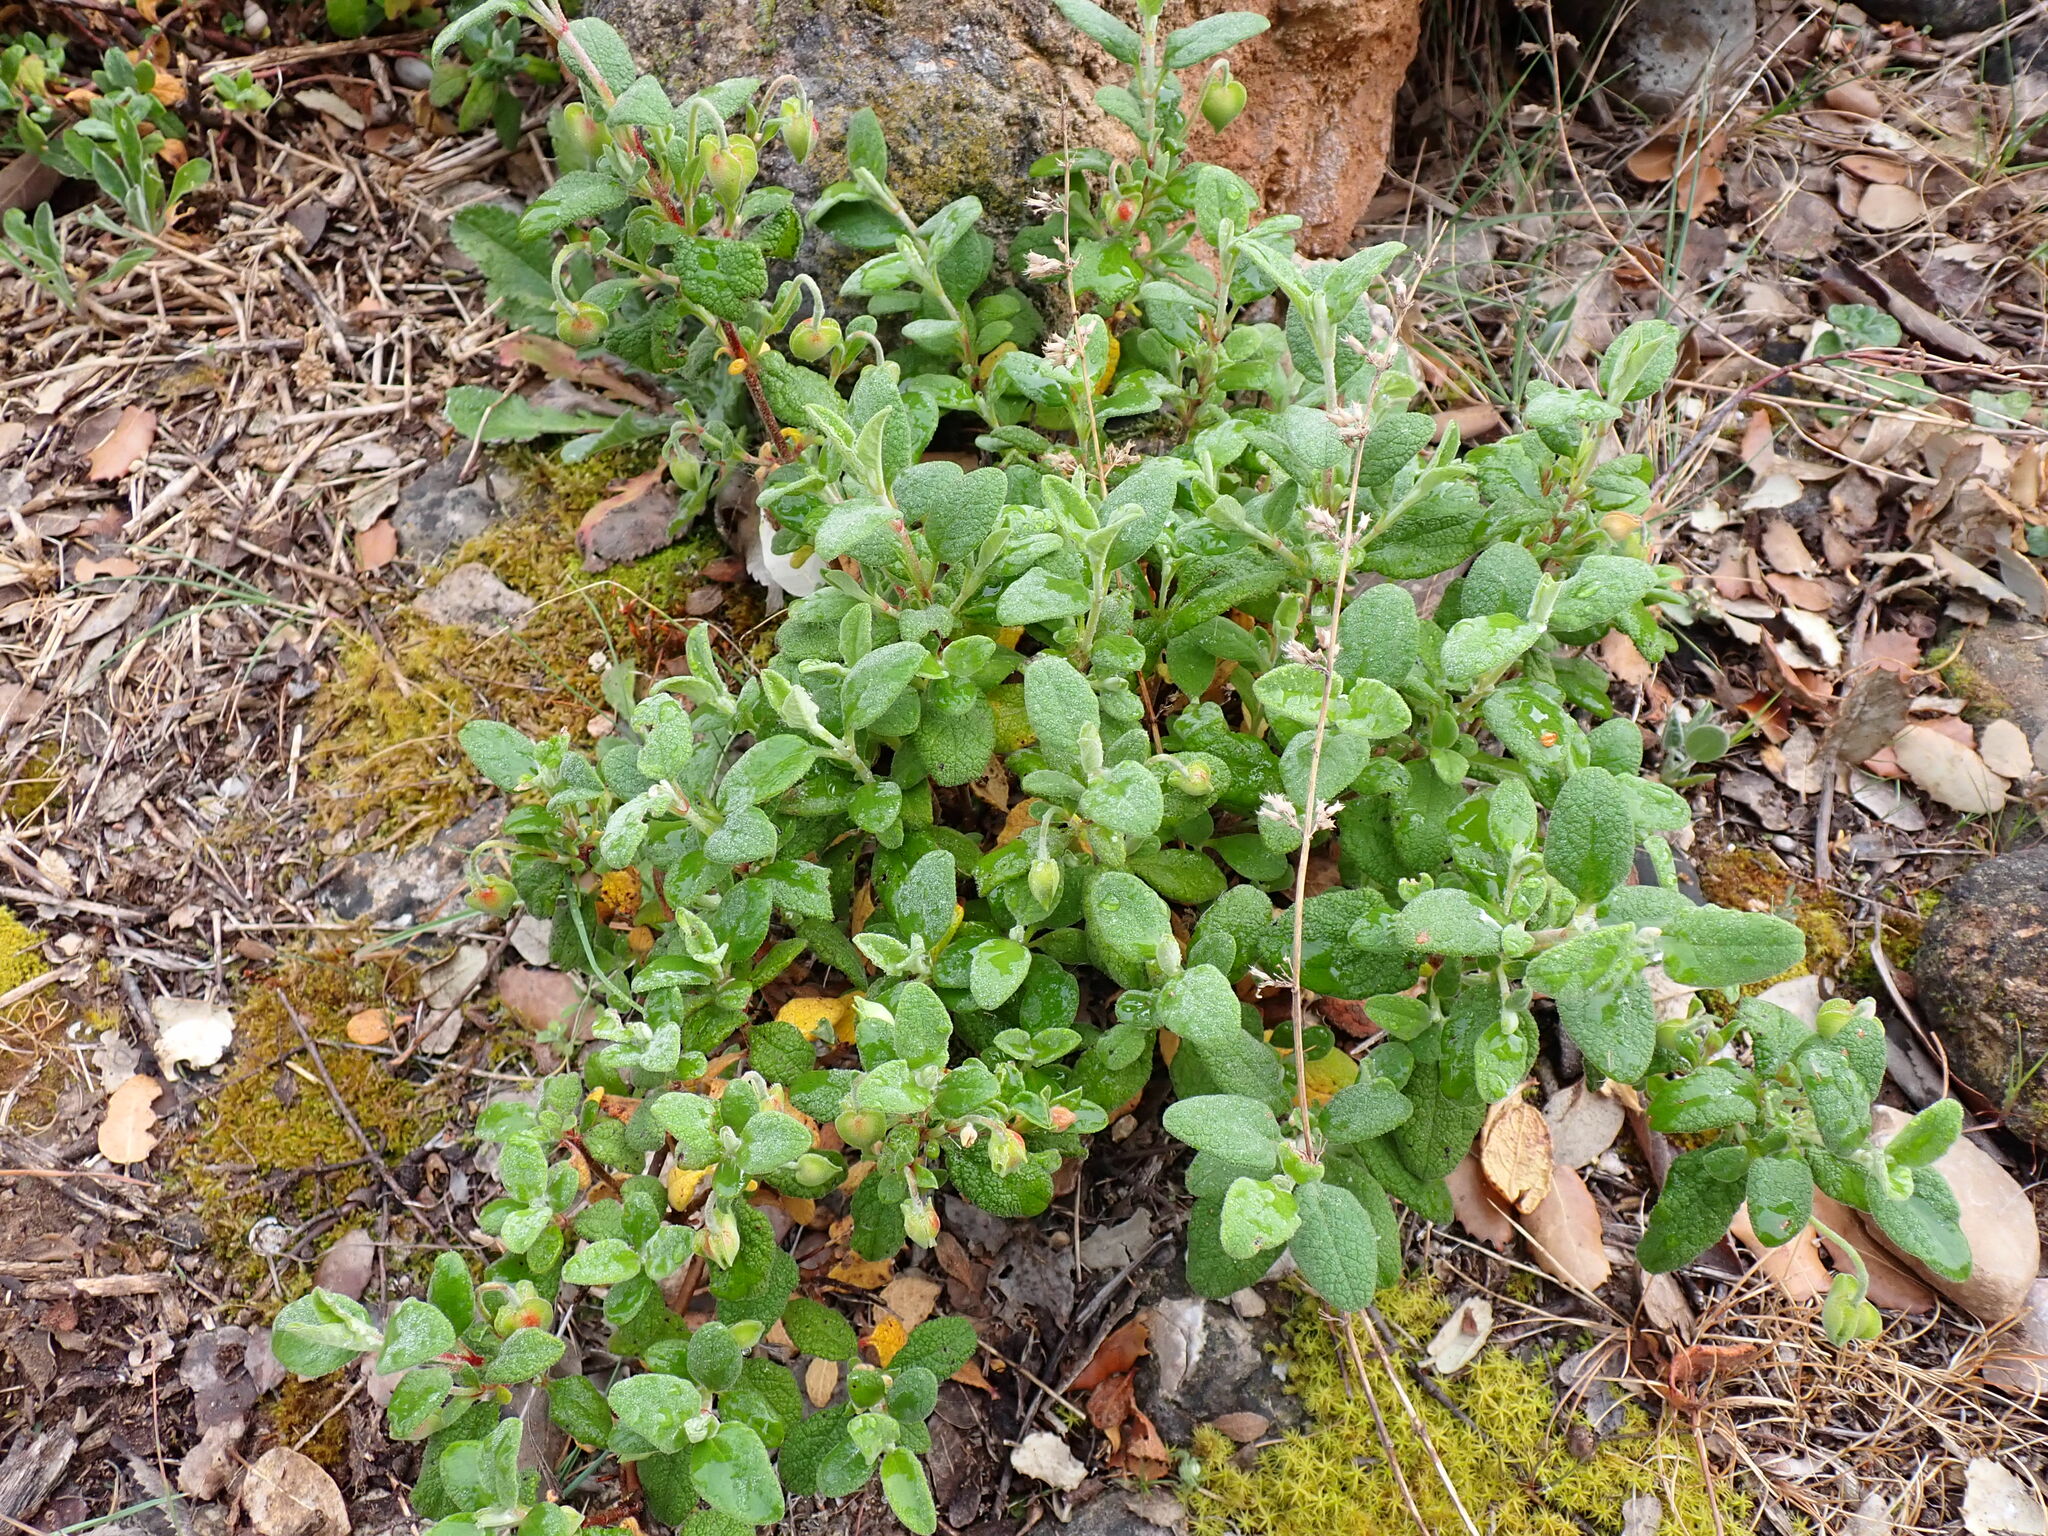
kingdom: Plantae
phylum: Tracheophyta
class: Magnoliopsida
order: Malvales
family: Cistaceae
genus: Cistus
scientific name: Cistus salviifolius
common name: Salvia cistus
